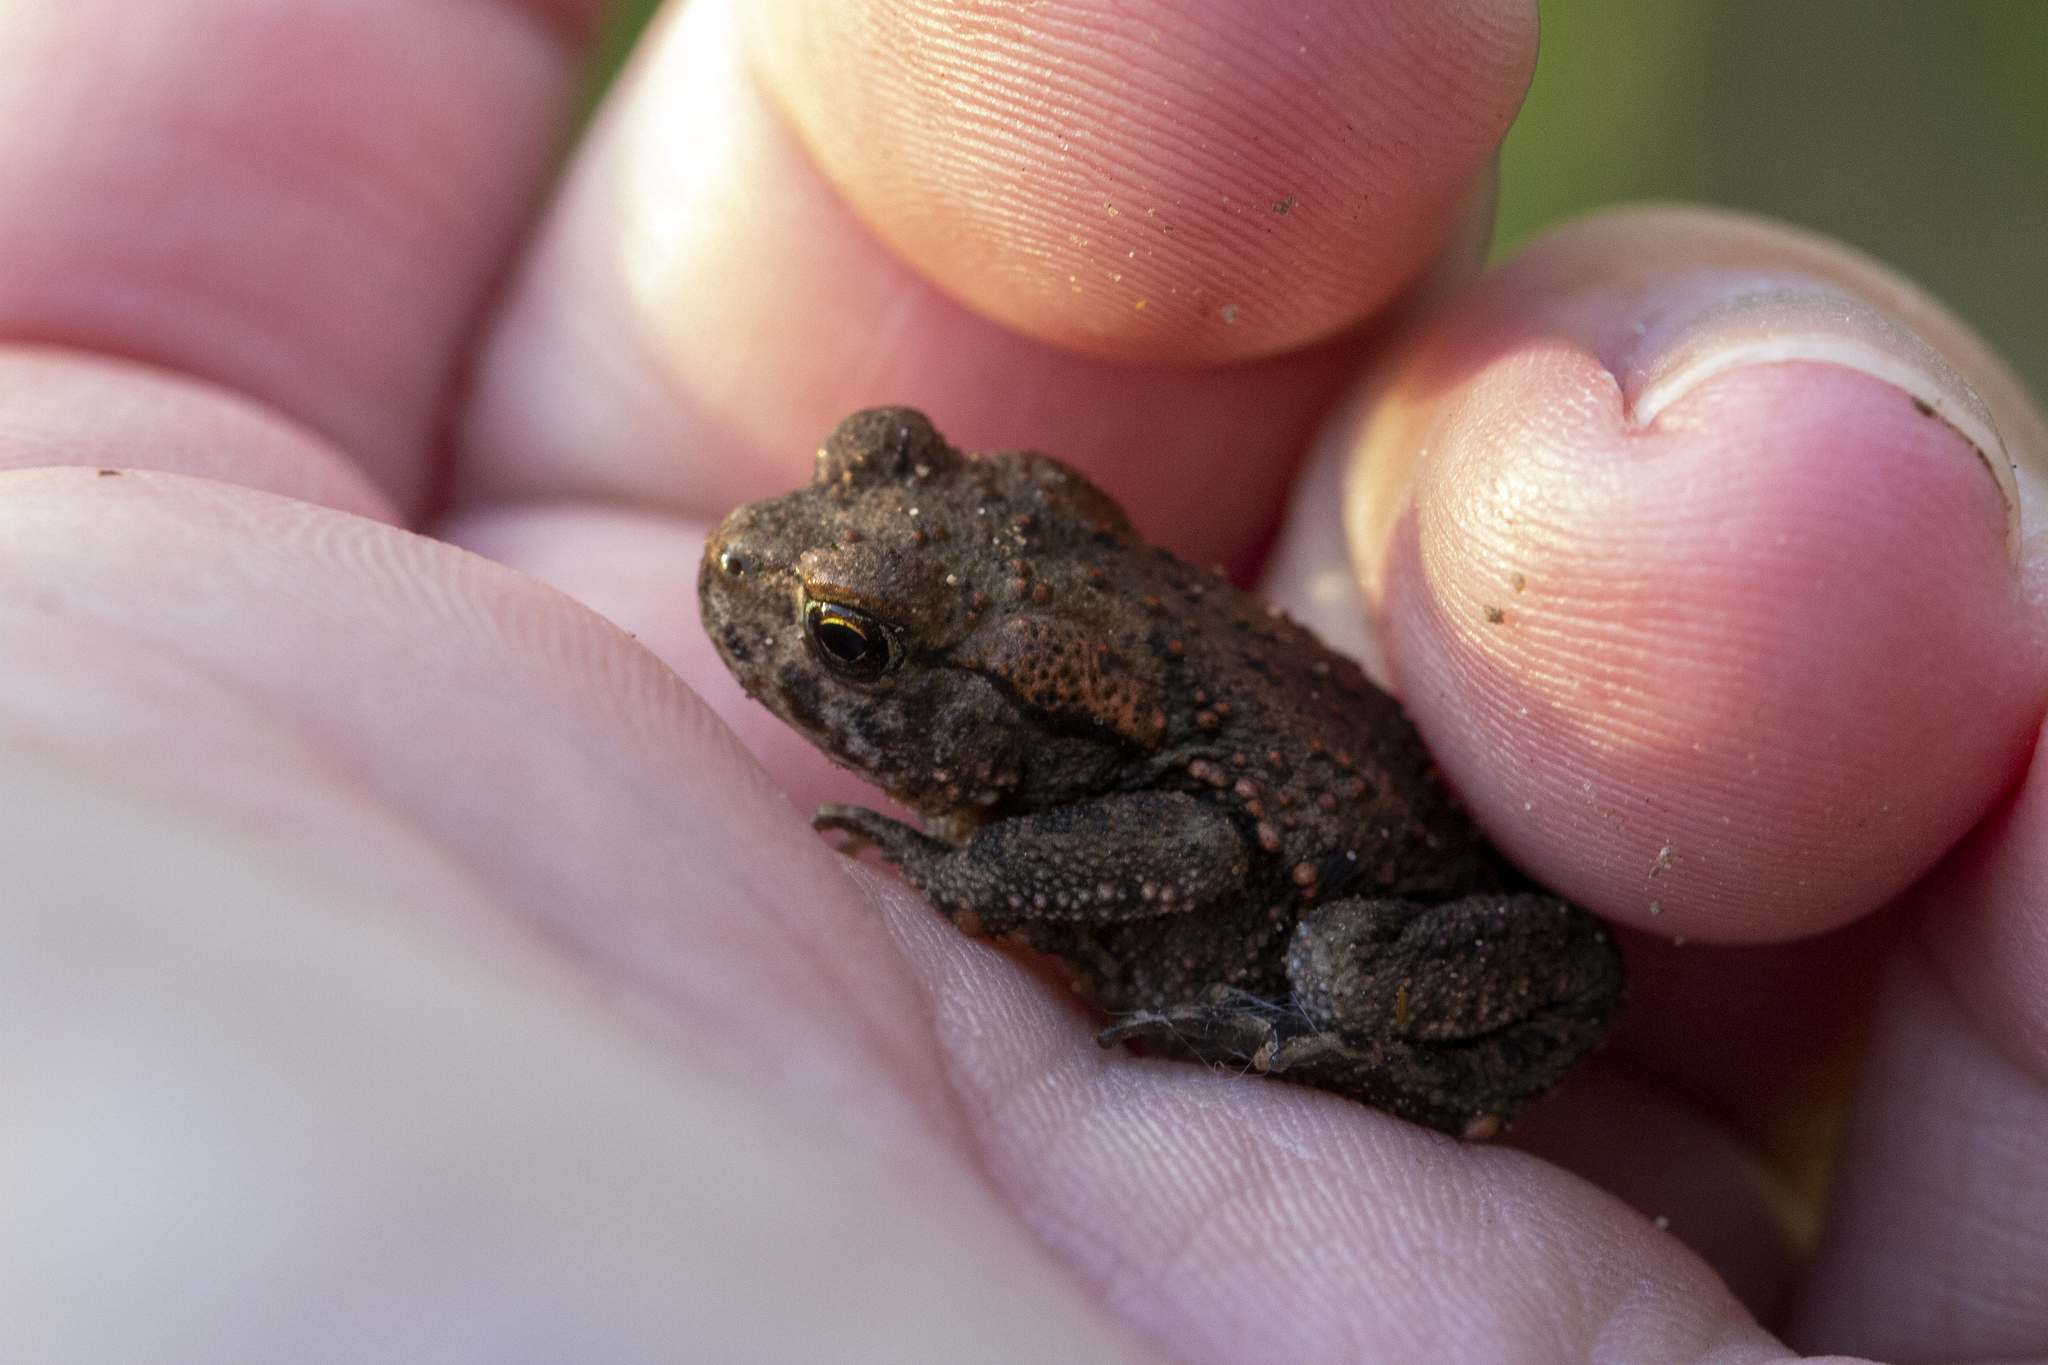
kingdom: Animalia
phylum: Chordata
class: Amphibia
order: Anura
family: Bufonidae
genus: Bufo
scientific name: Bufo bufo
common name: Common toad
